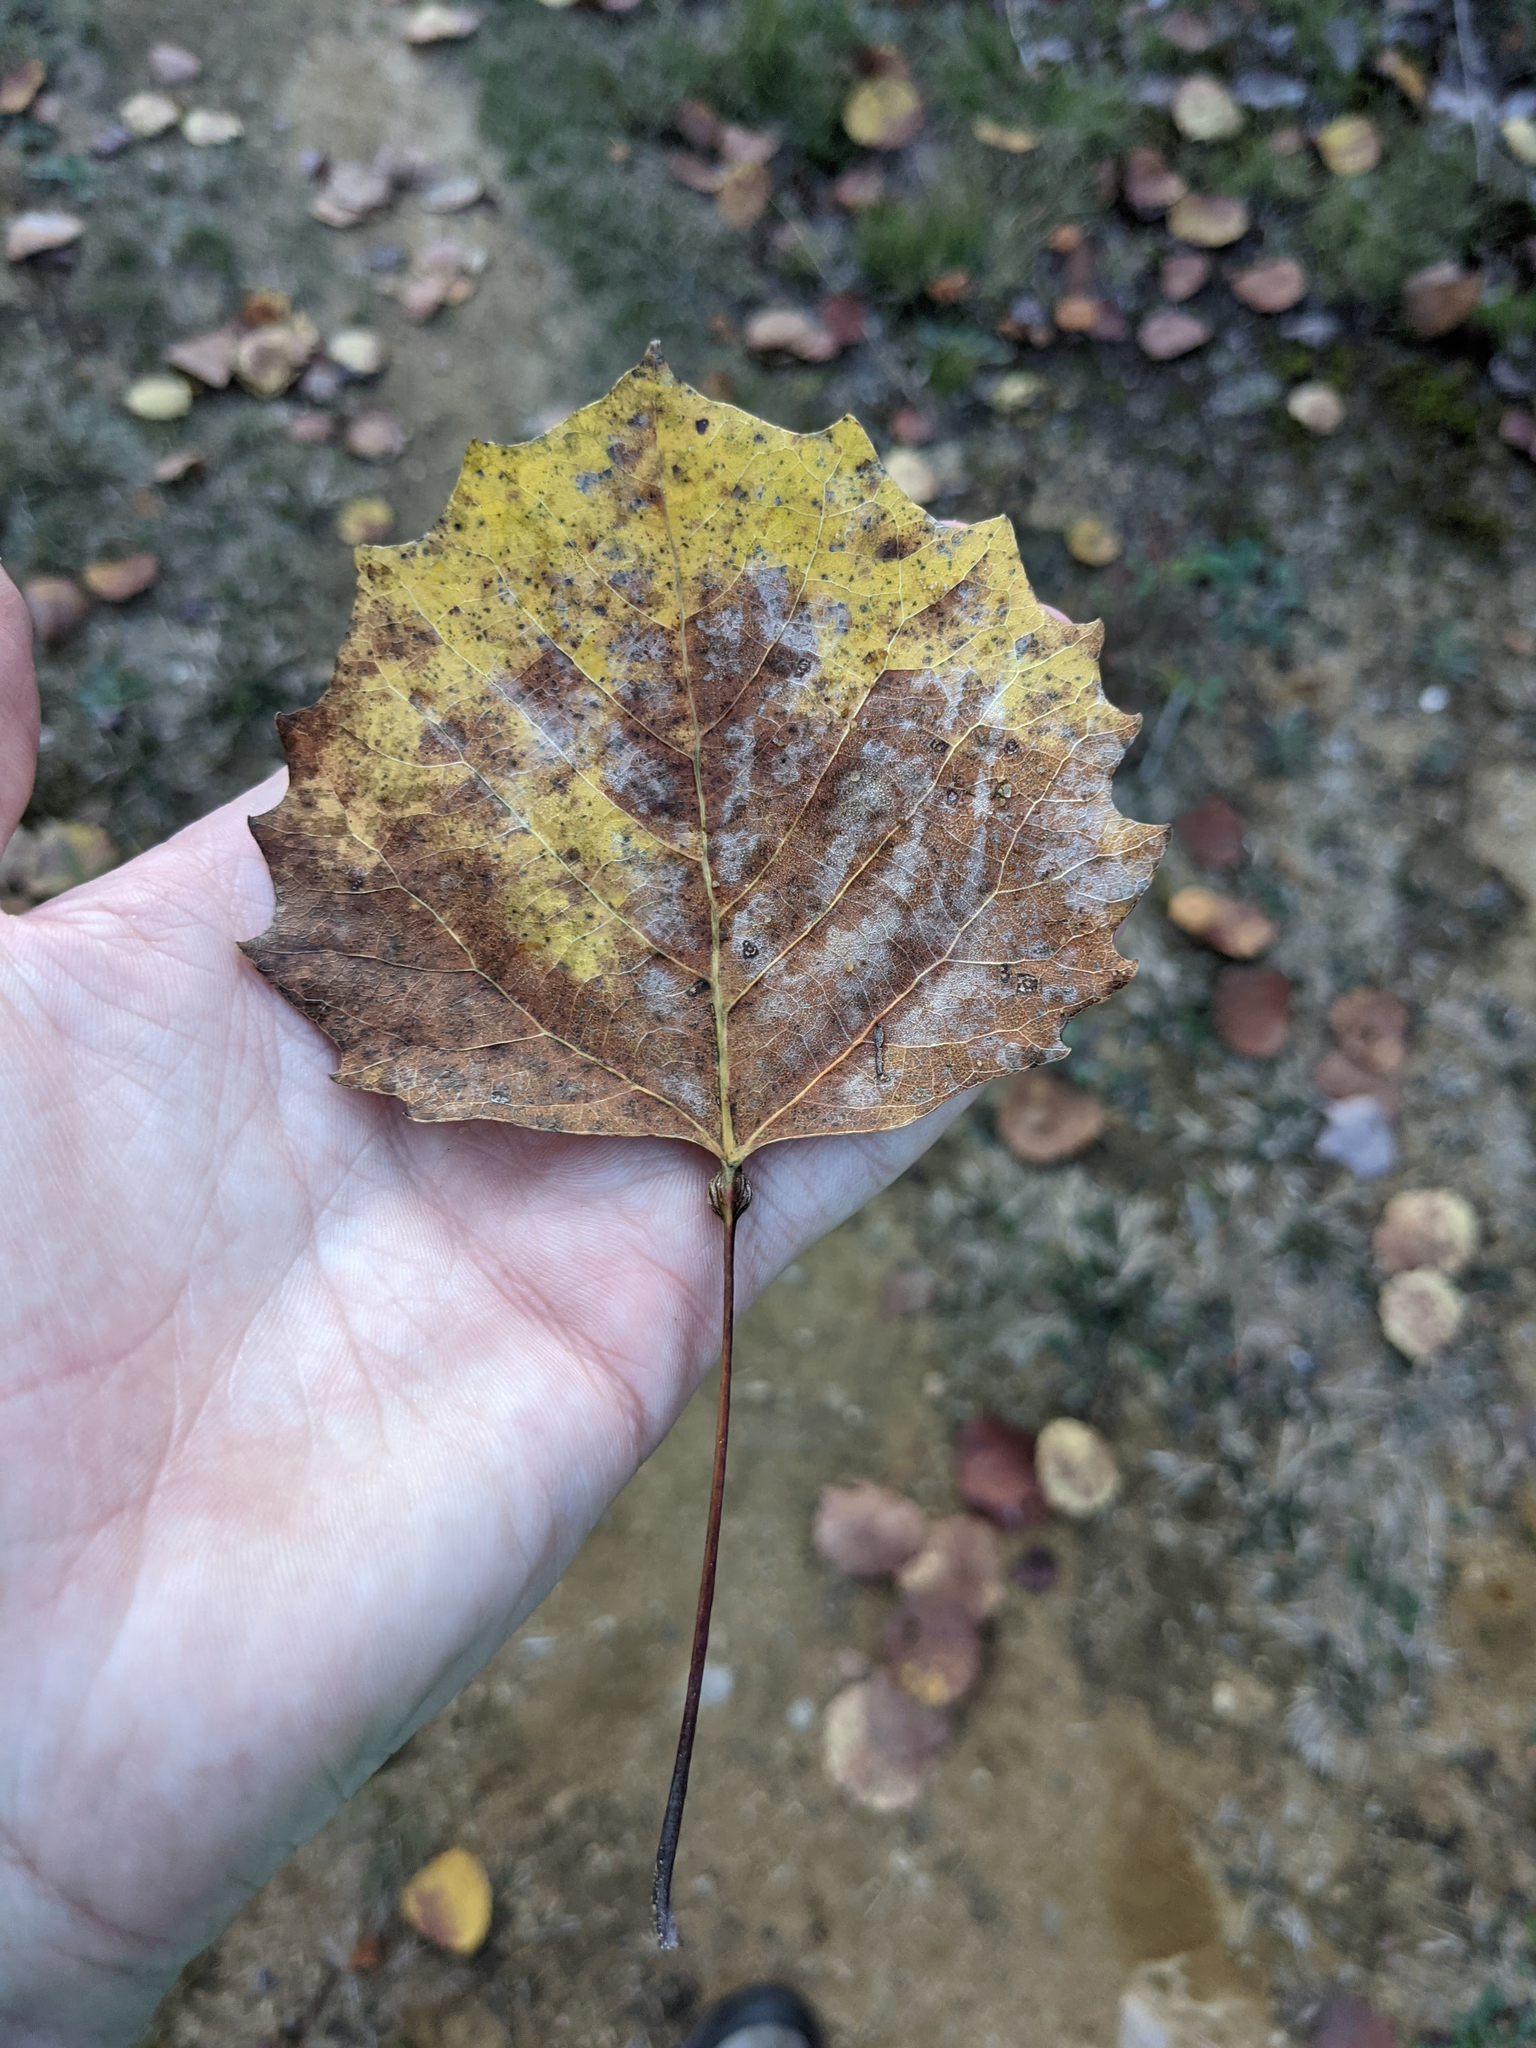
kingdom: Plantae
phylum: Tracheophyta
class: Magnoliopsida
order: Malpighiales
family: Salicaceae
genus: Populus
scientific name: Populus grandidentata
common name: Bigtooth aspen
